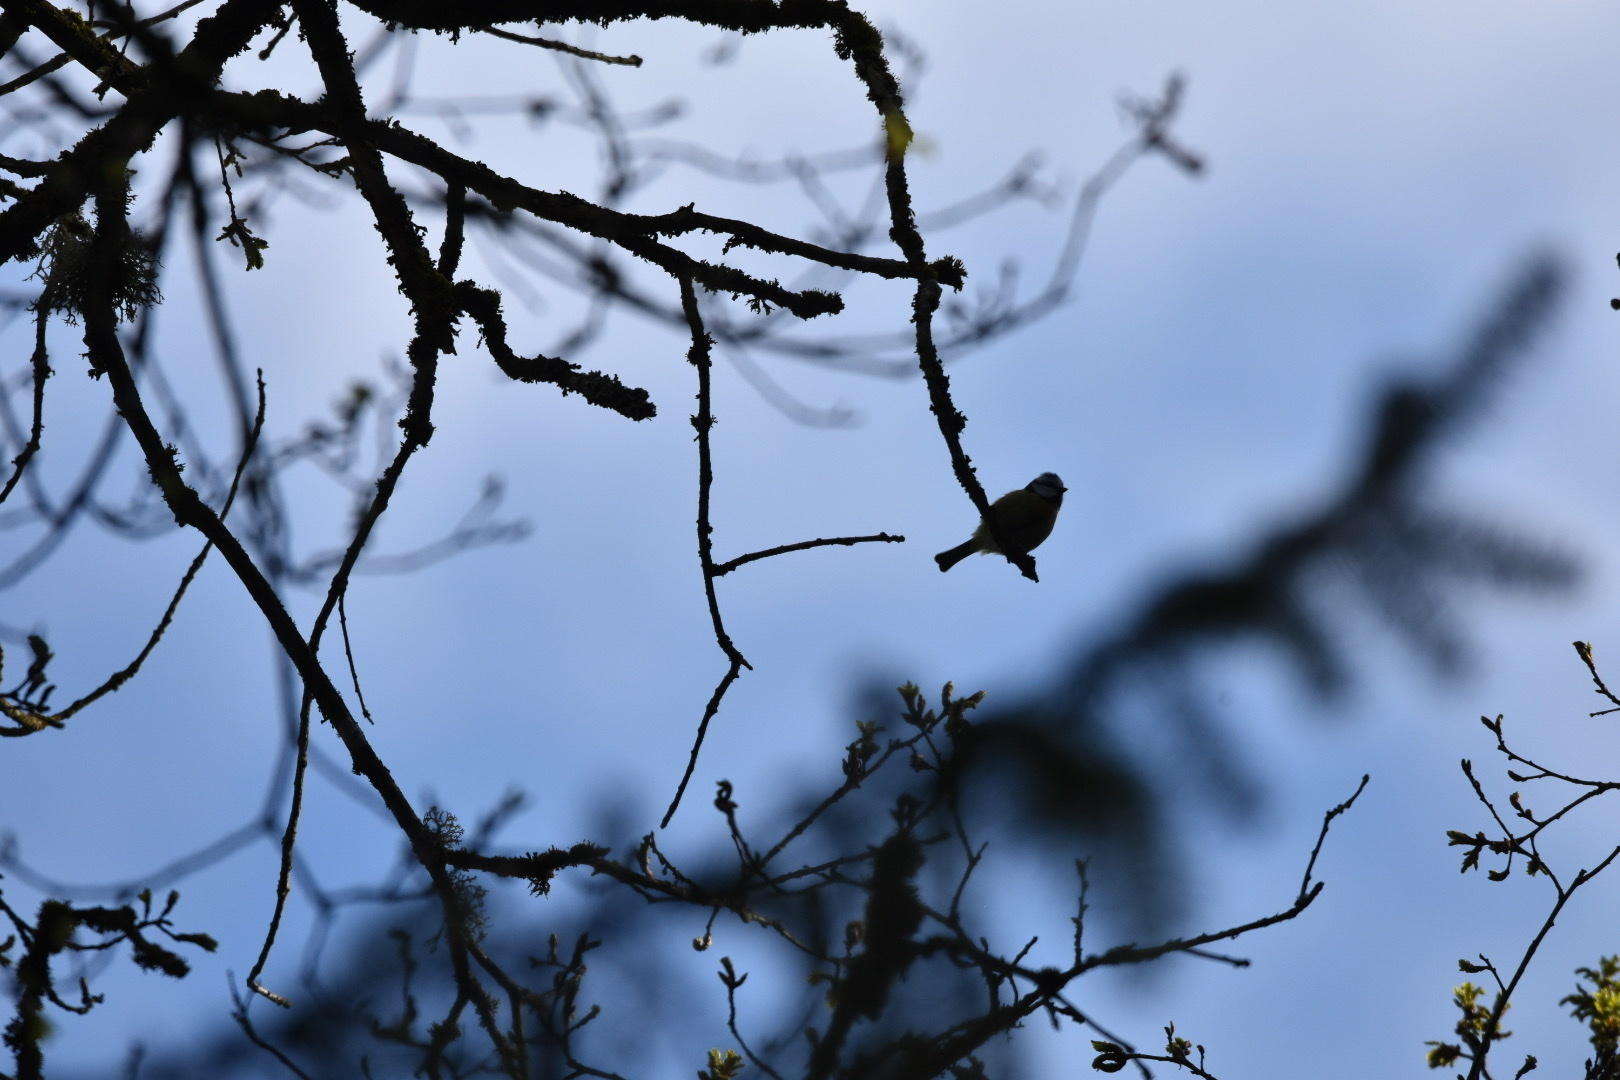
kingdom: Animalia
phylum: Chordata
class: Aves
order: Passeriformes
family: Paridae
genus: Cyanistes
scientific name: Cyanistes caeruleus
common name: Eurasian blue tit
